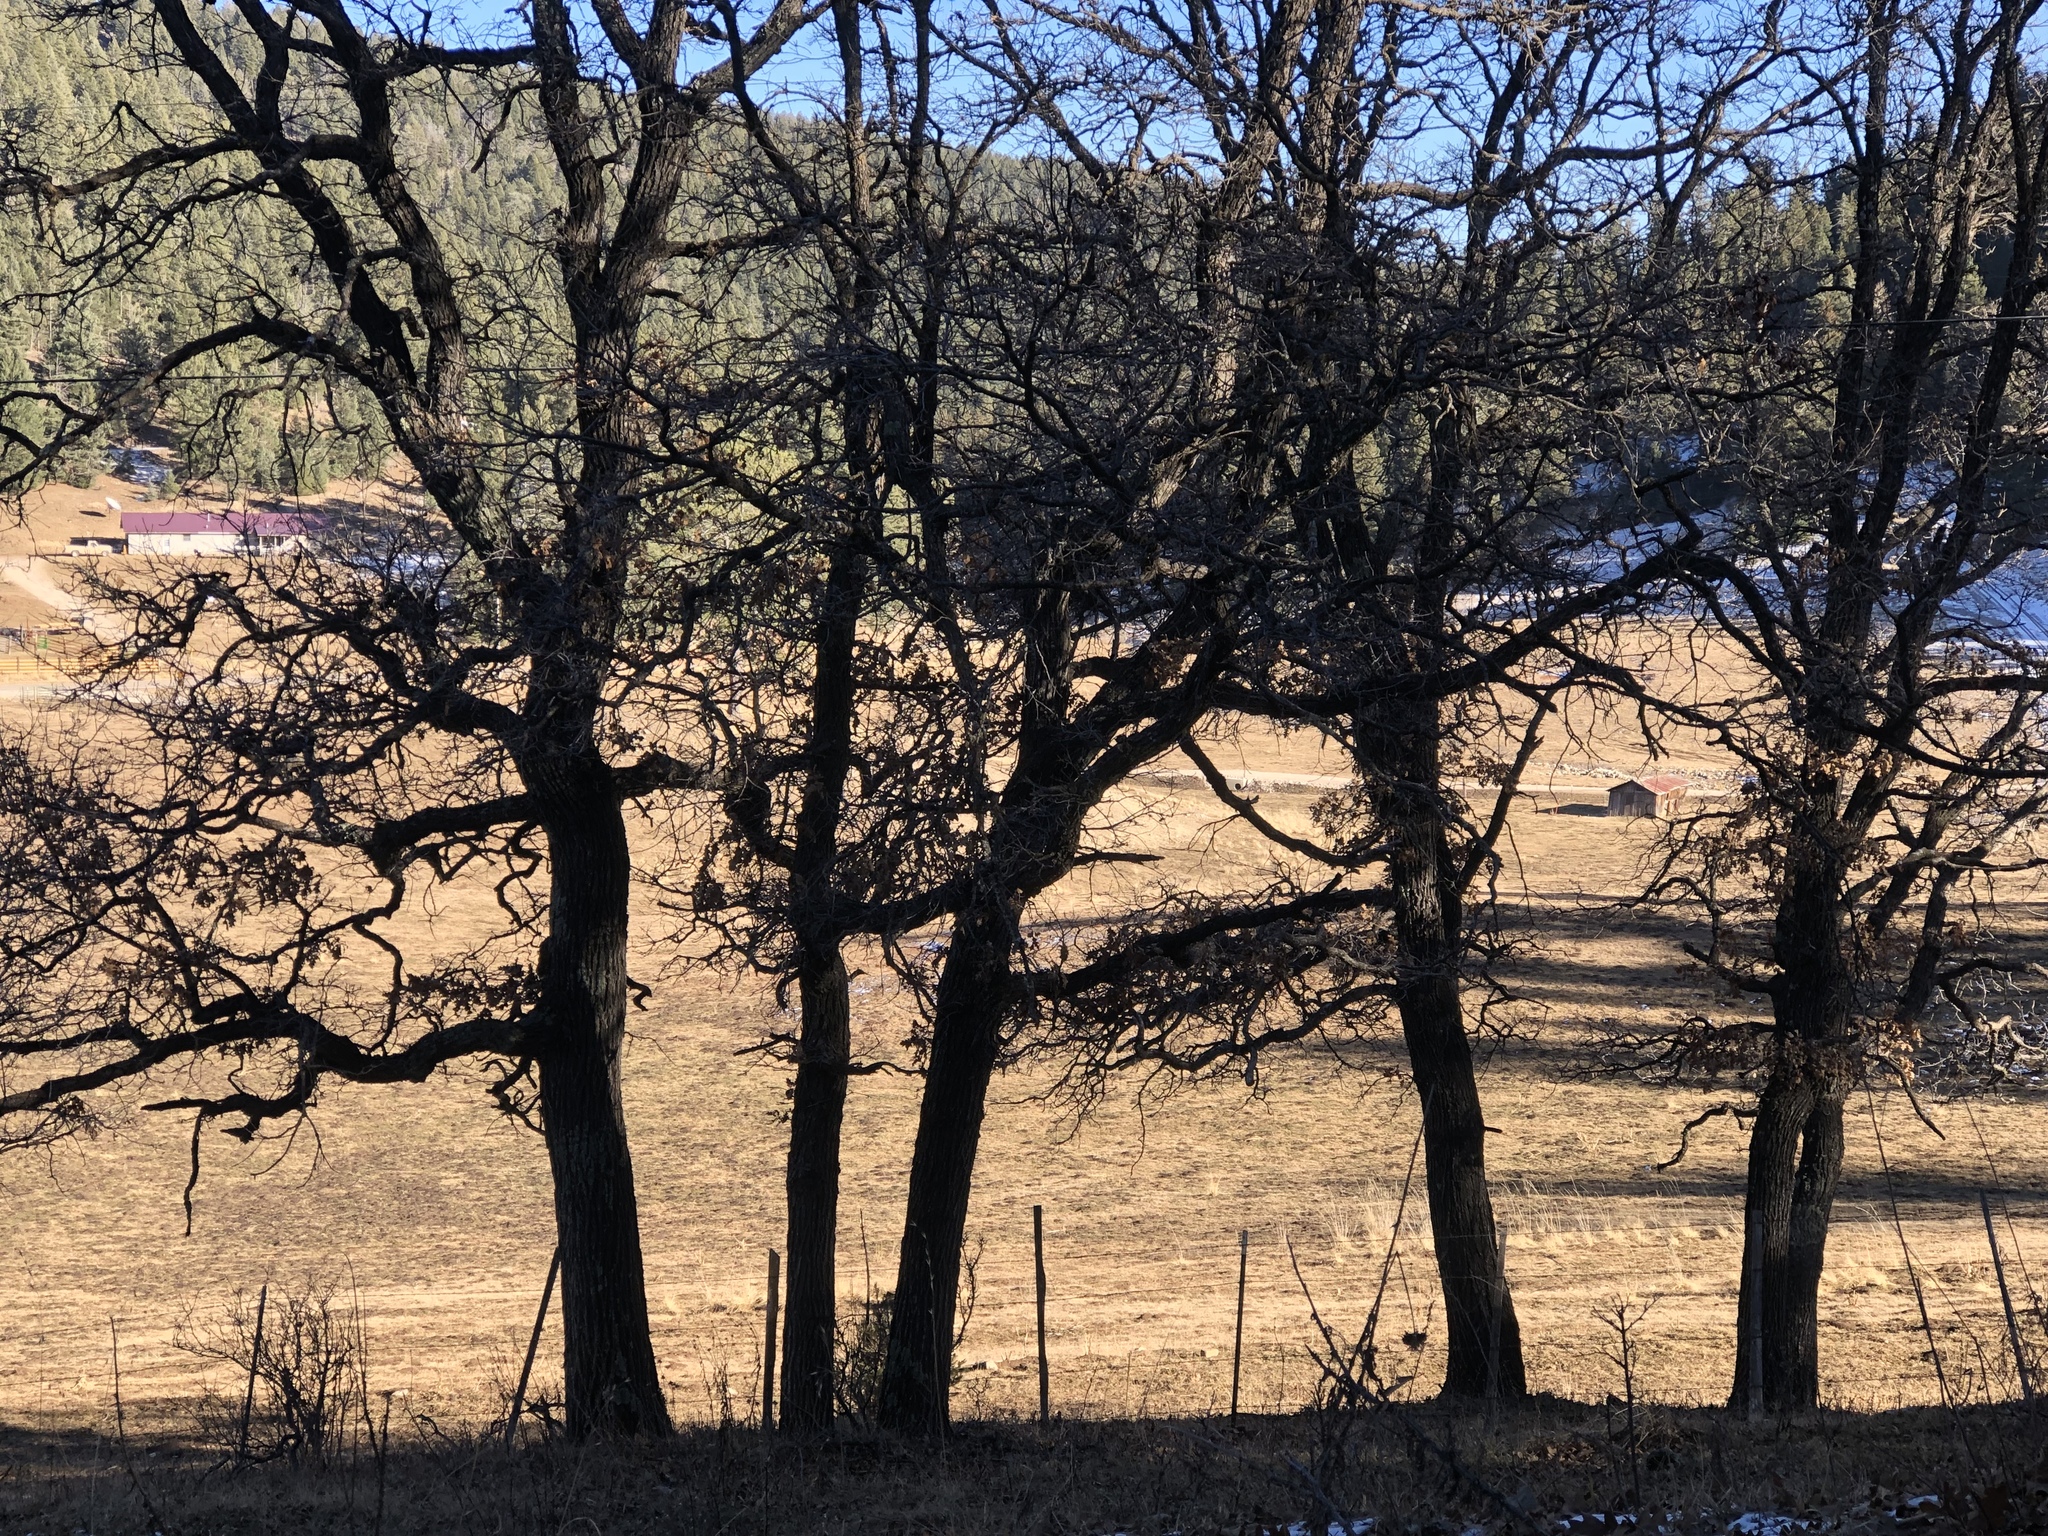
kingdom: Plantae
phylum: Tracheophyta
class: Magnoliopsida
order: Fagales
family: Fagaceae
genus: Quercus
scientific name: Quercus gambelii
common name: Gambel oak
